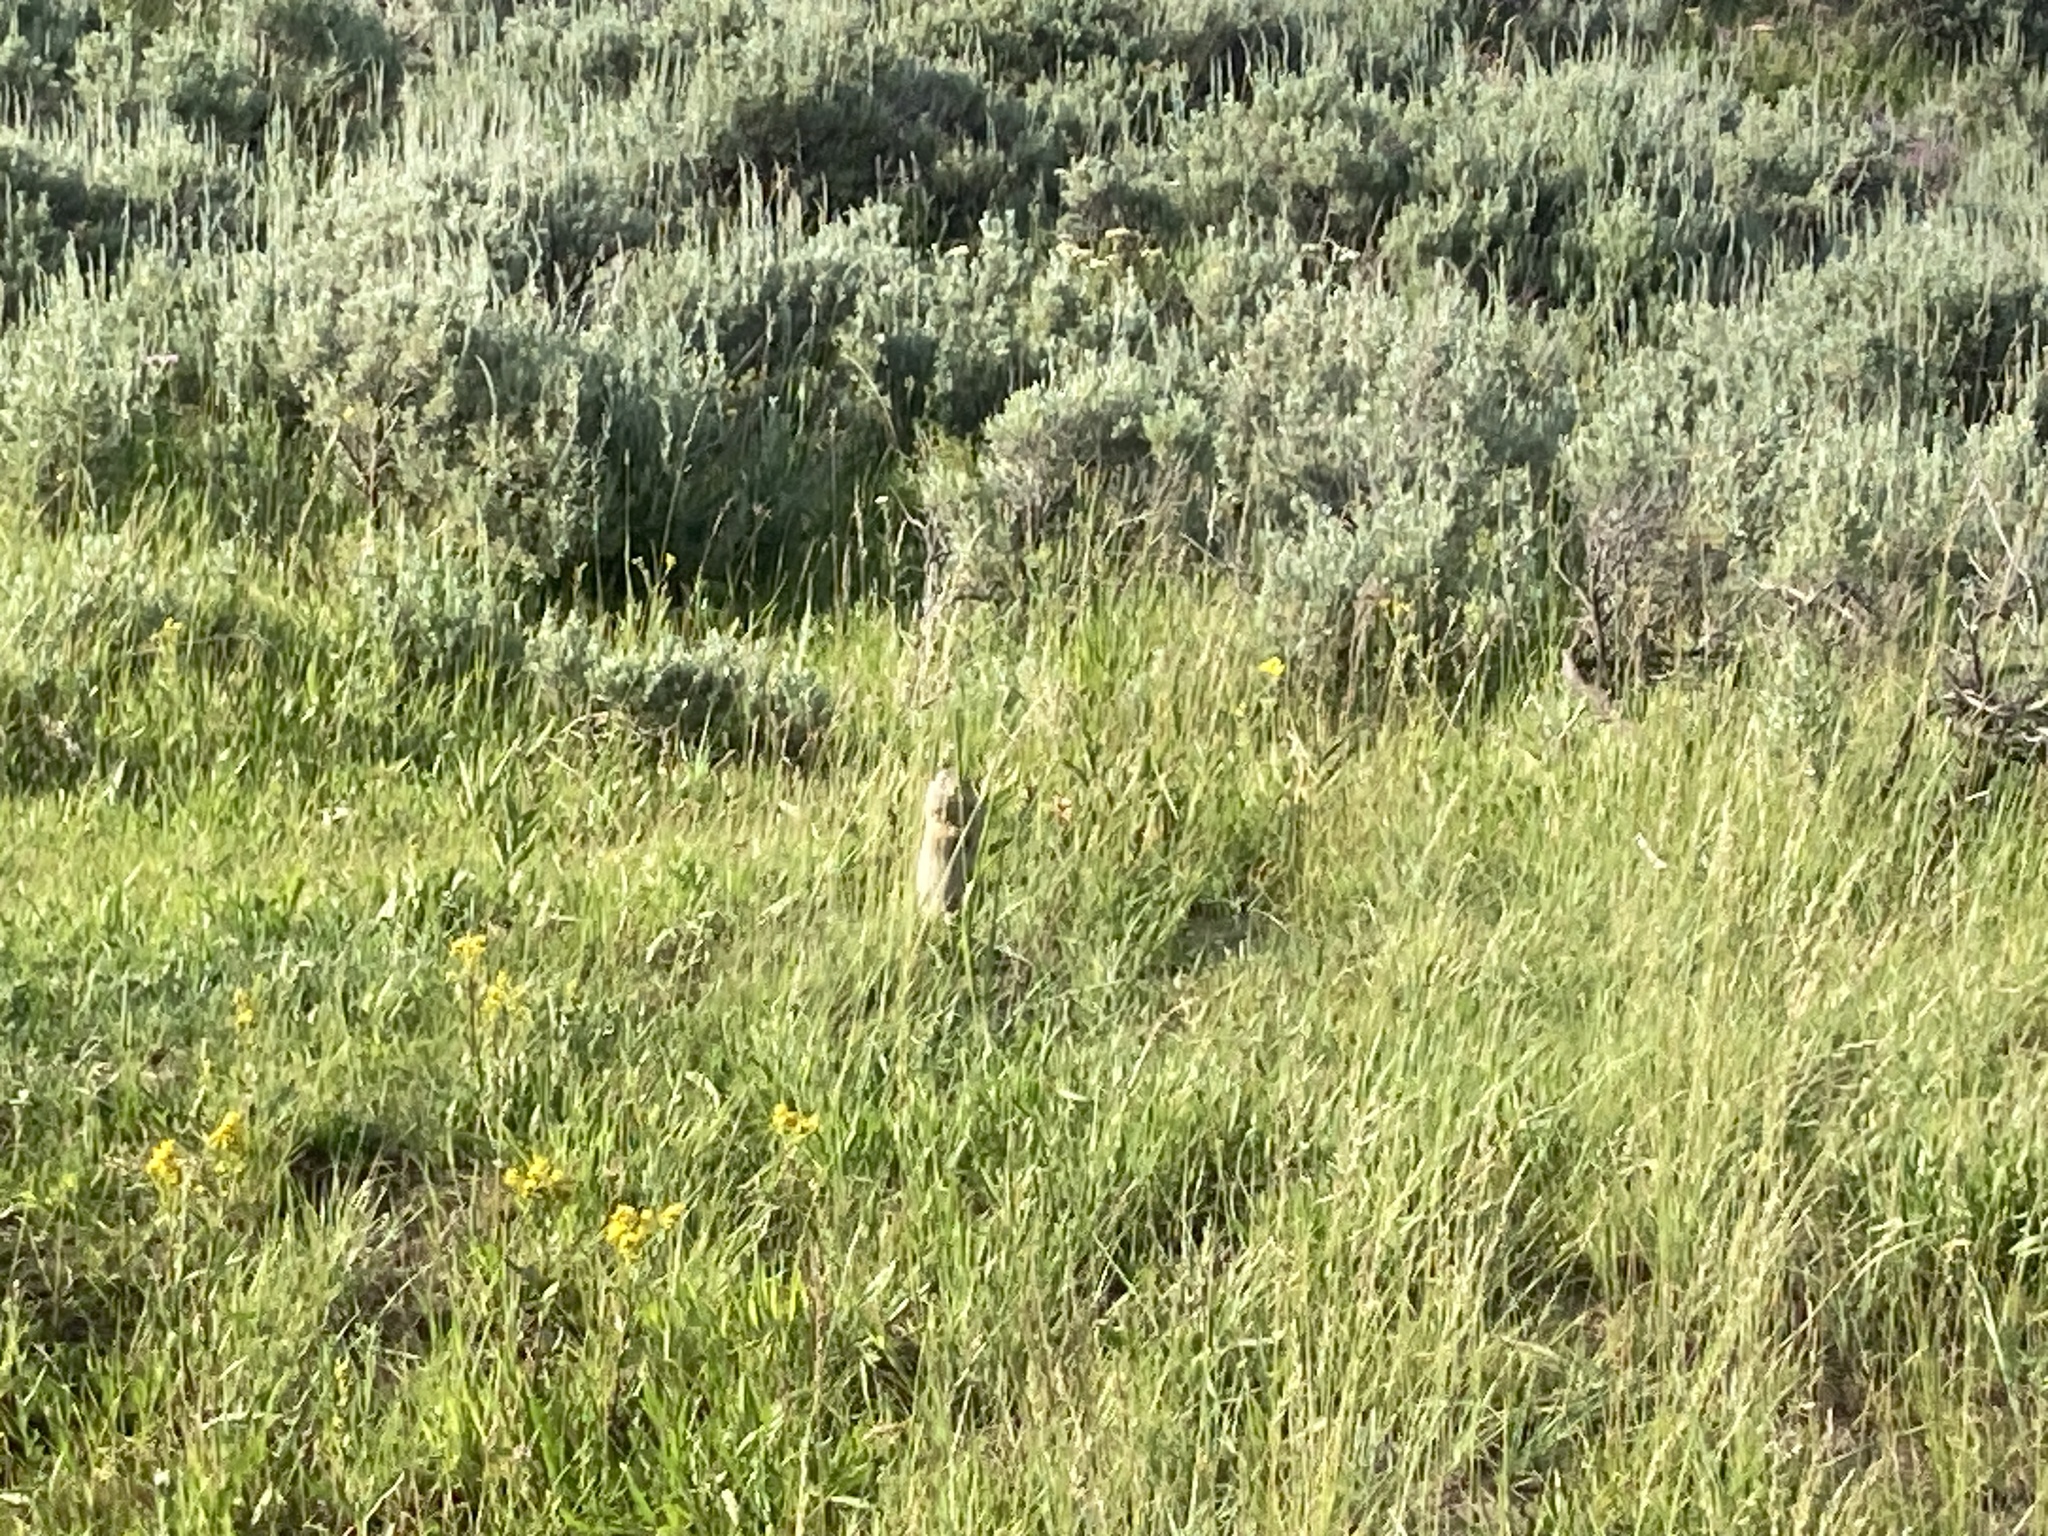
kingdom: Animalia
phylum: Chordata
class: Mammalia
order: Rodentia
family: Sciuridae
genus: Urocitellus
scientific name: Urocitellus armatus
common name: Uinta ground squirrel
